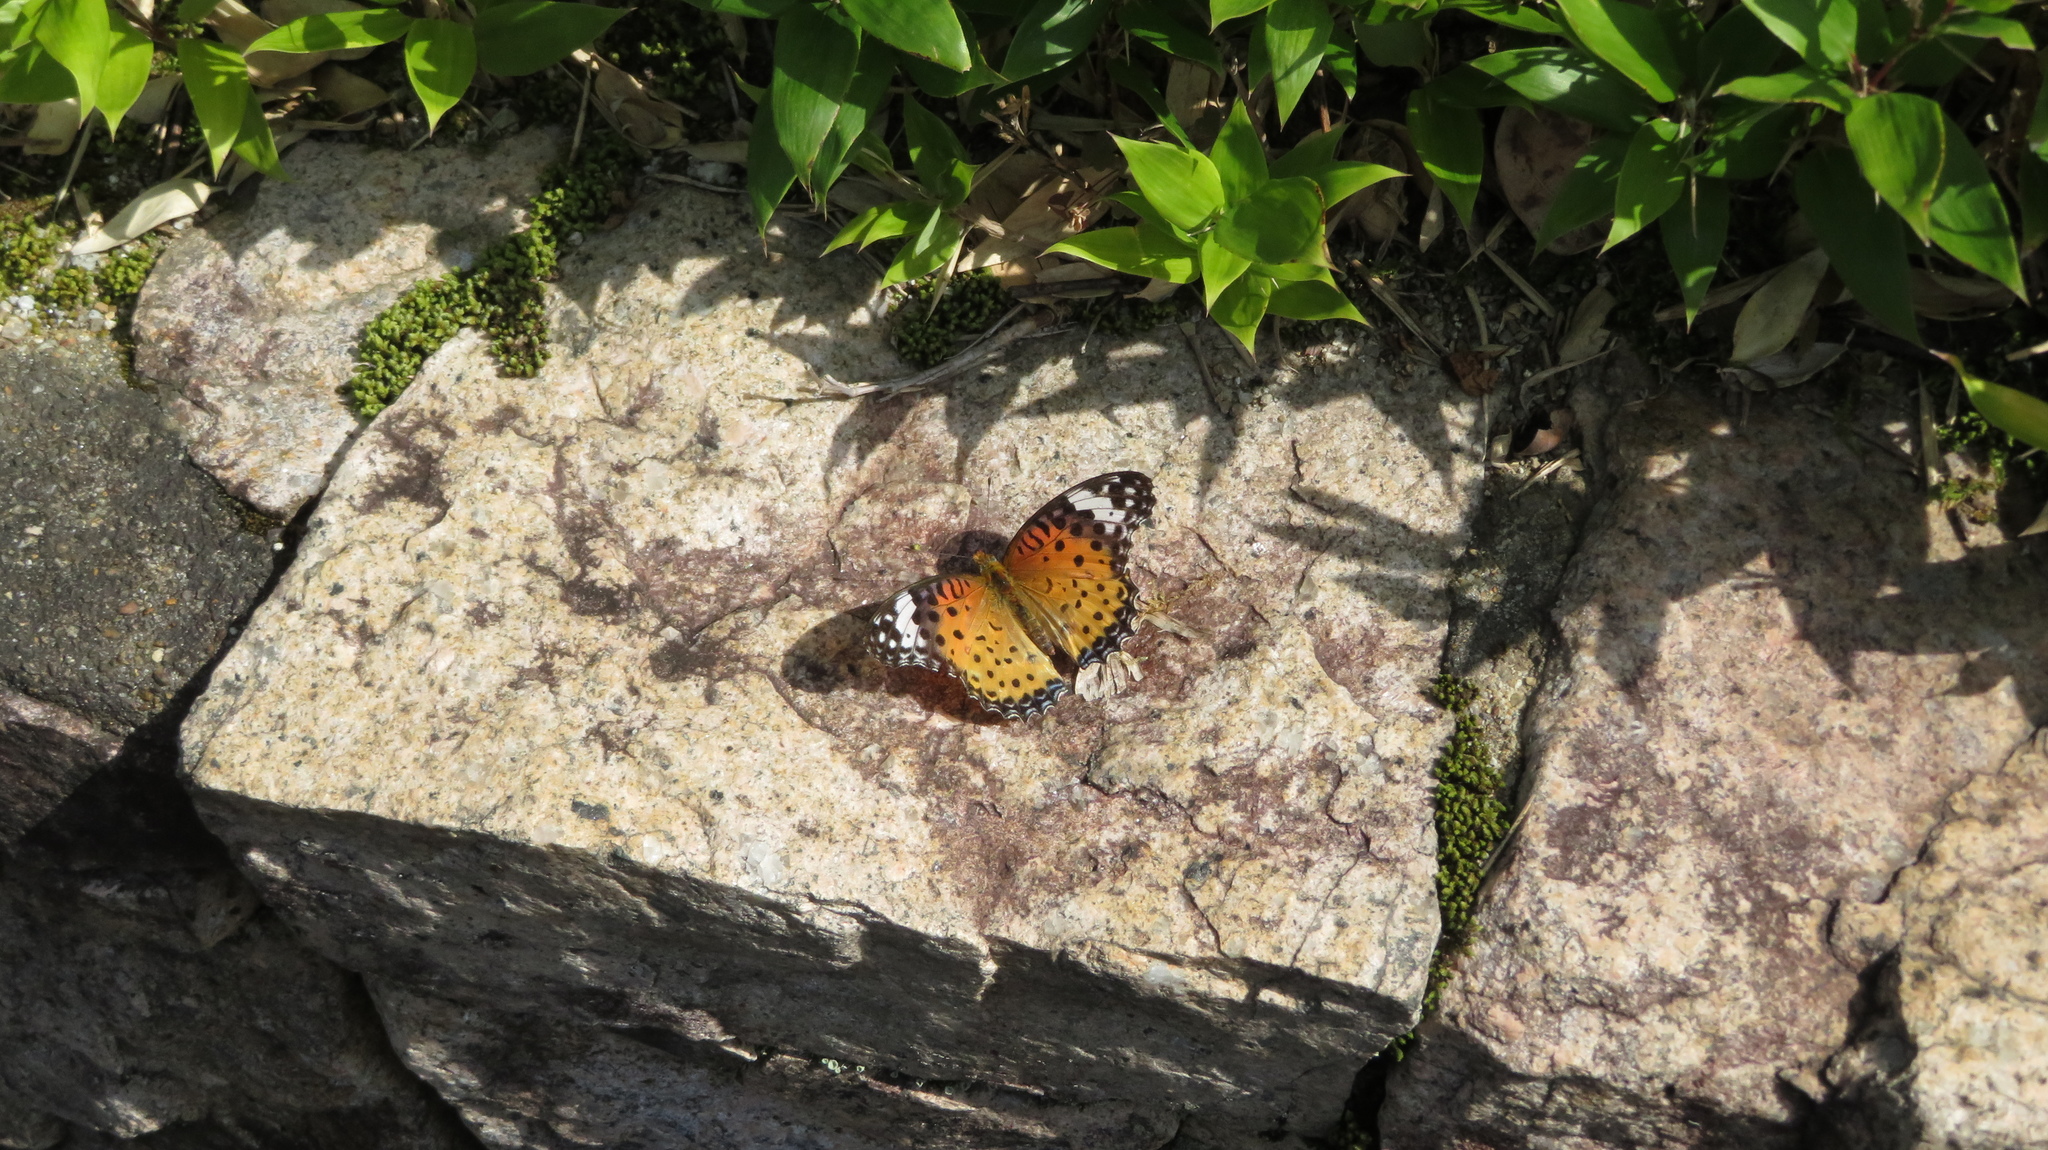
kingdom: Animalia
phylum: Arthropoda
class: Insecta
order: Lepidoptera
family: Nymphalidae
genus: Argynnis
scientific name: Argynnis hyperbius
